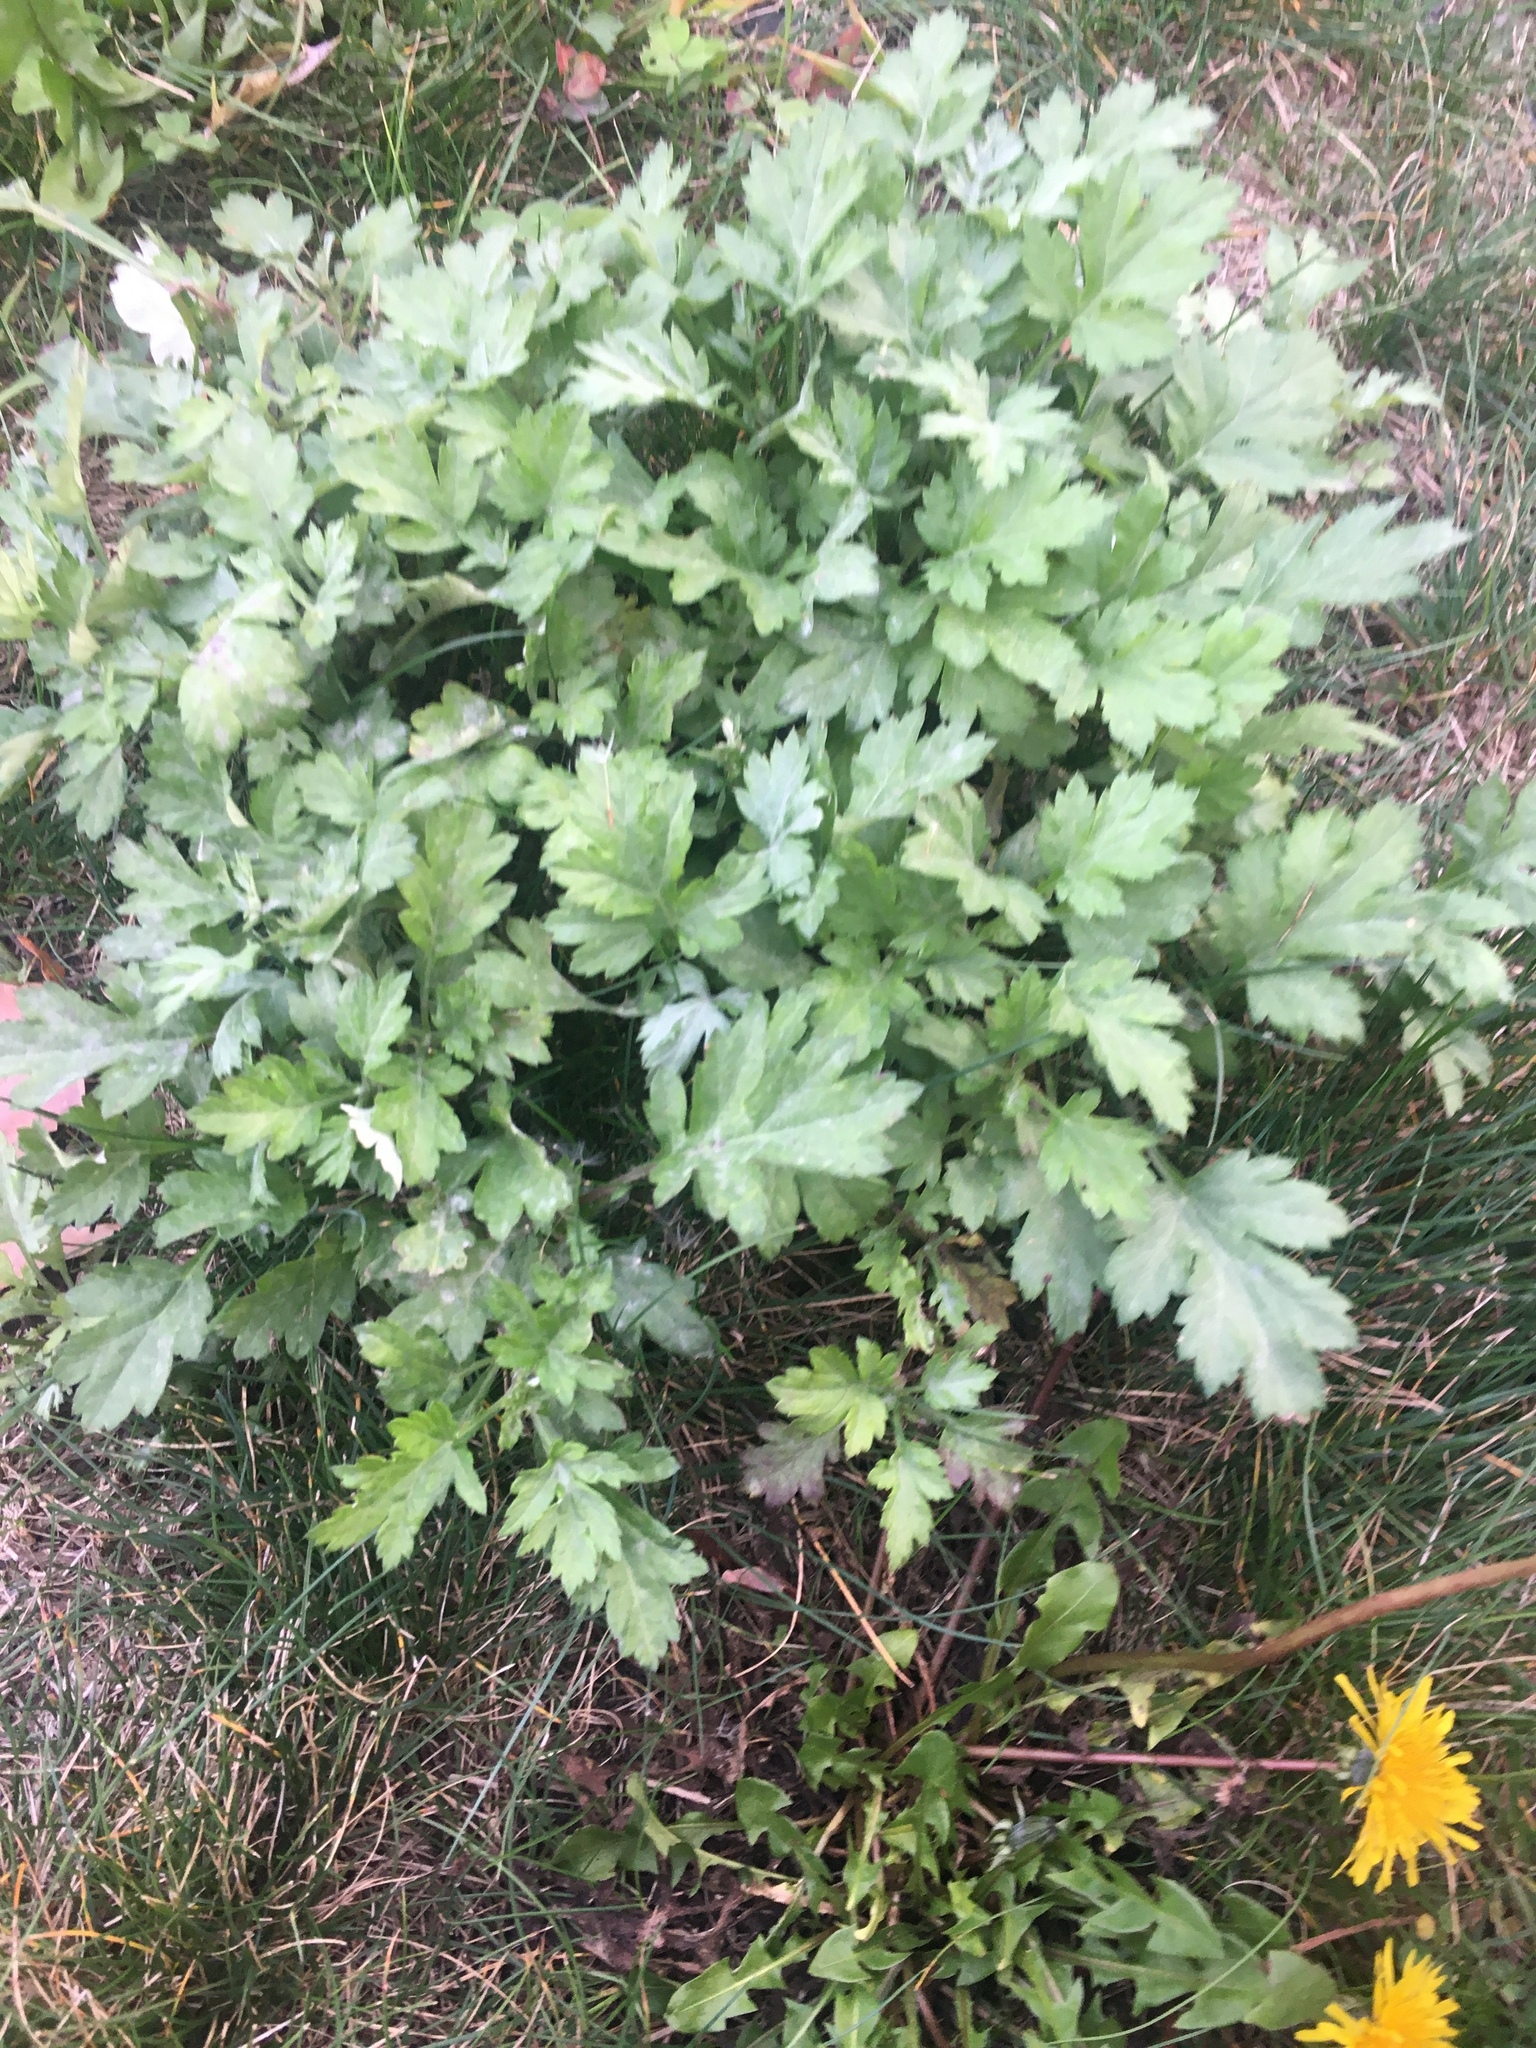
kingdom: Plantae
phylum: Tracheophyta
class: Magnoliopsida
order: Asterales
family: Asteraceae
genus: Artemisia
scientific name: Artemisia vulgaris
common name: Mugwort
